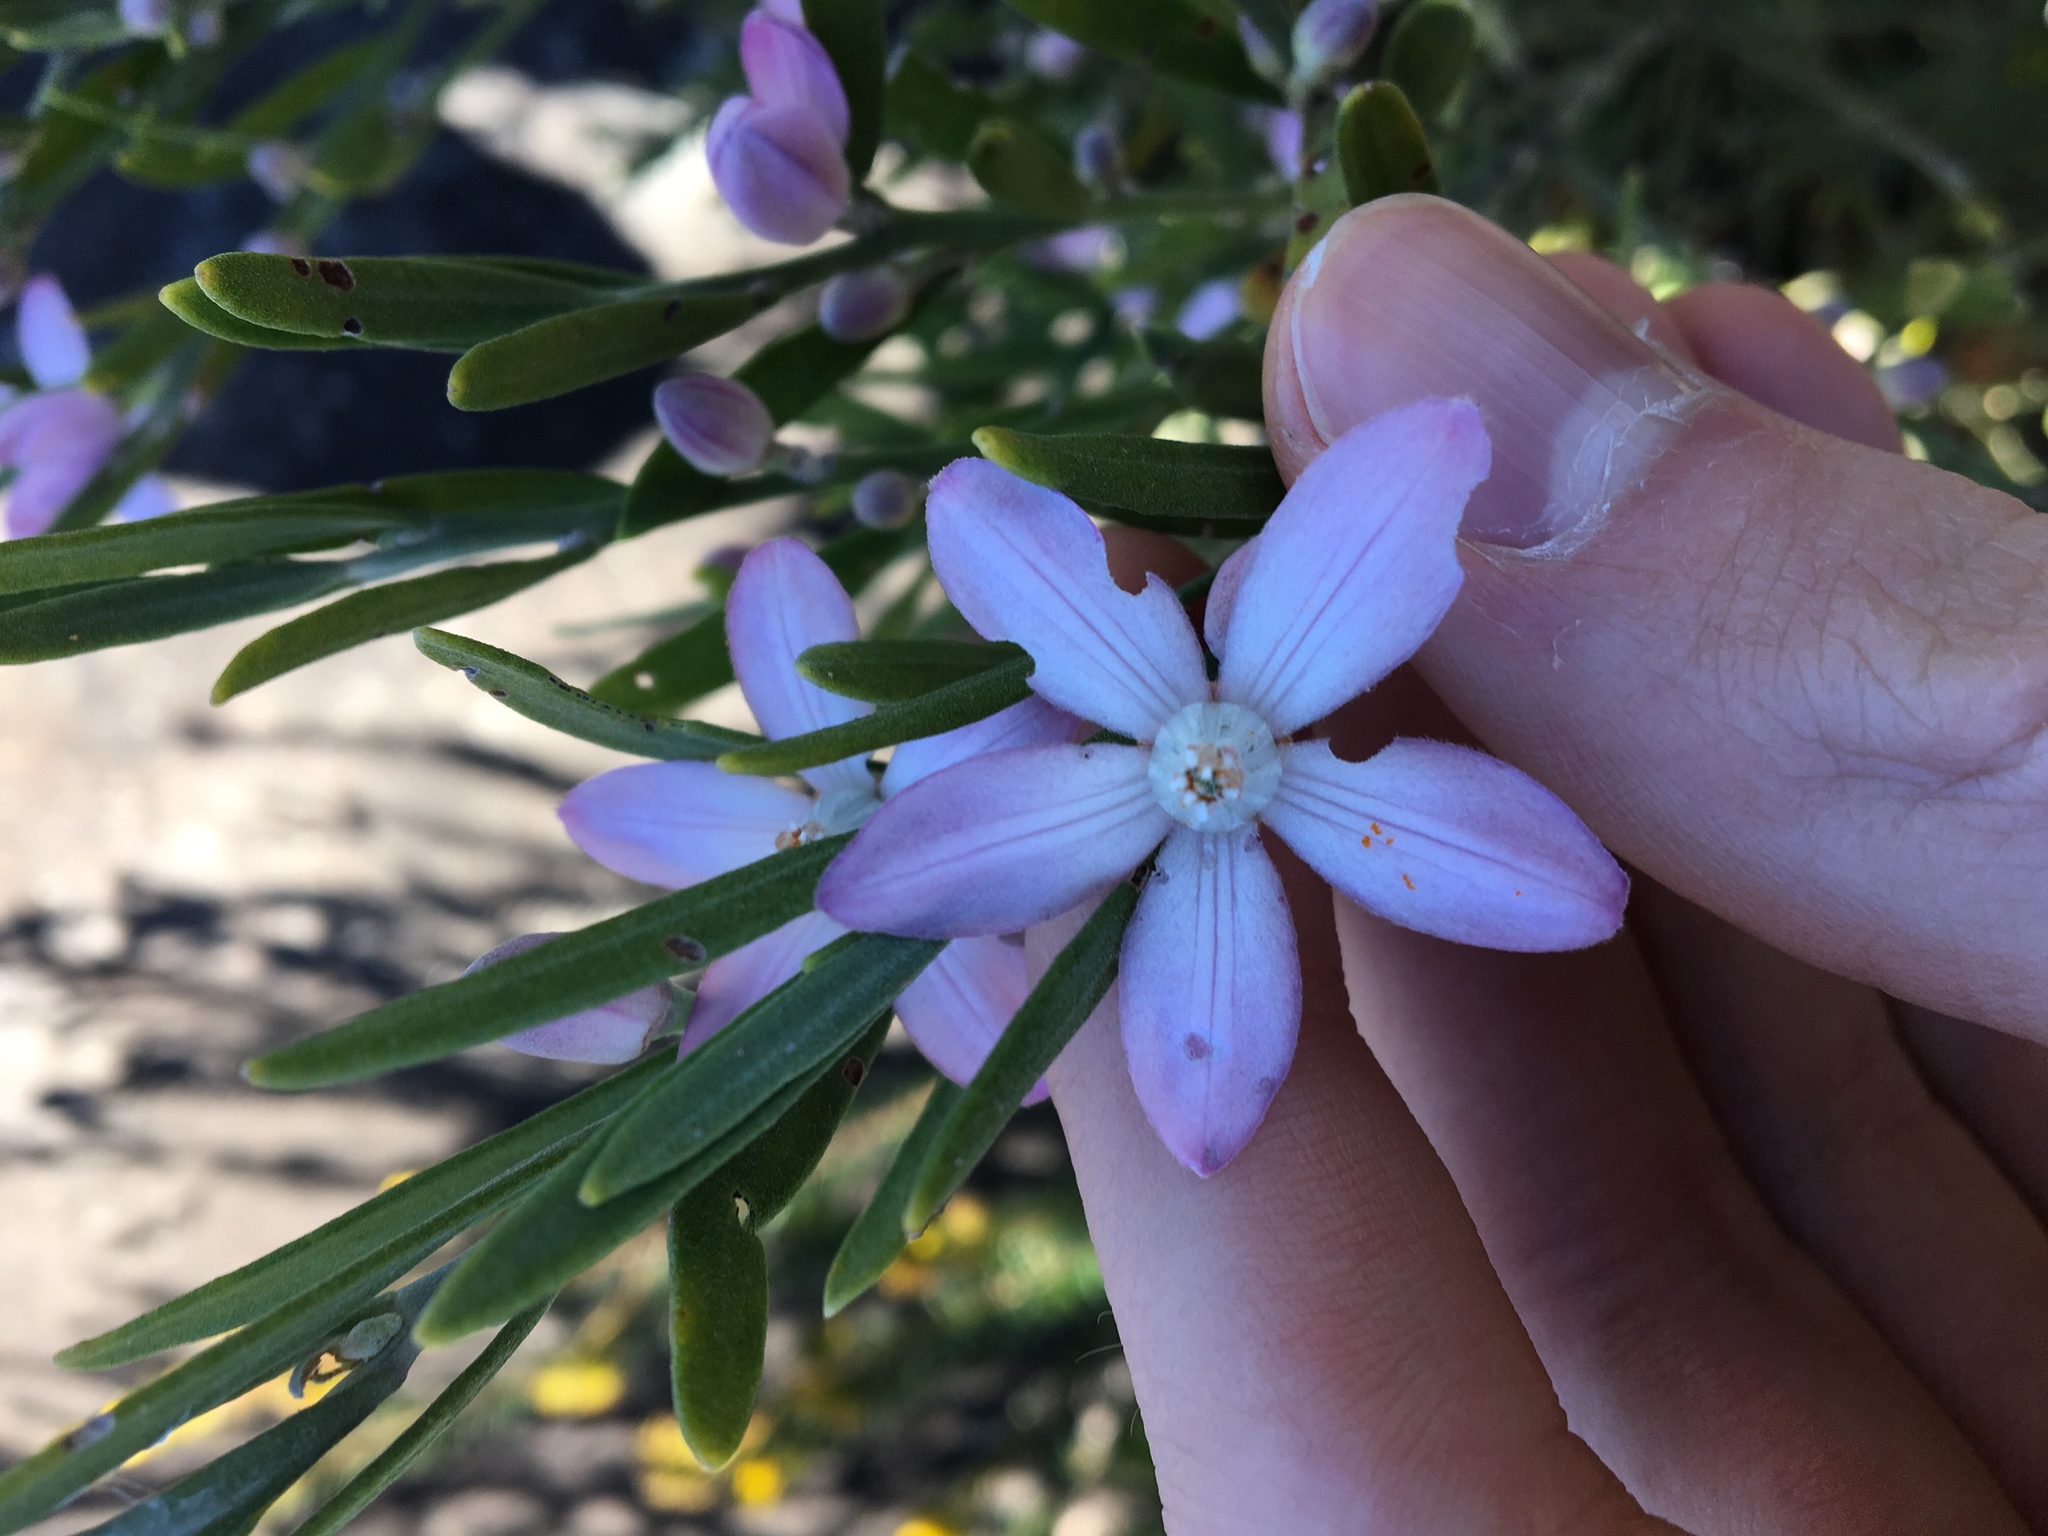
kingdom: Plantae
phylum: Tracheophyta
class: Magnoliopsida
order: Sapindales
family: Rutaceae
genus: Eriostemon
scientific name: Eriostemon australasius
